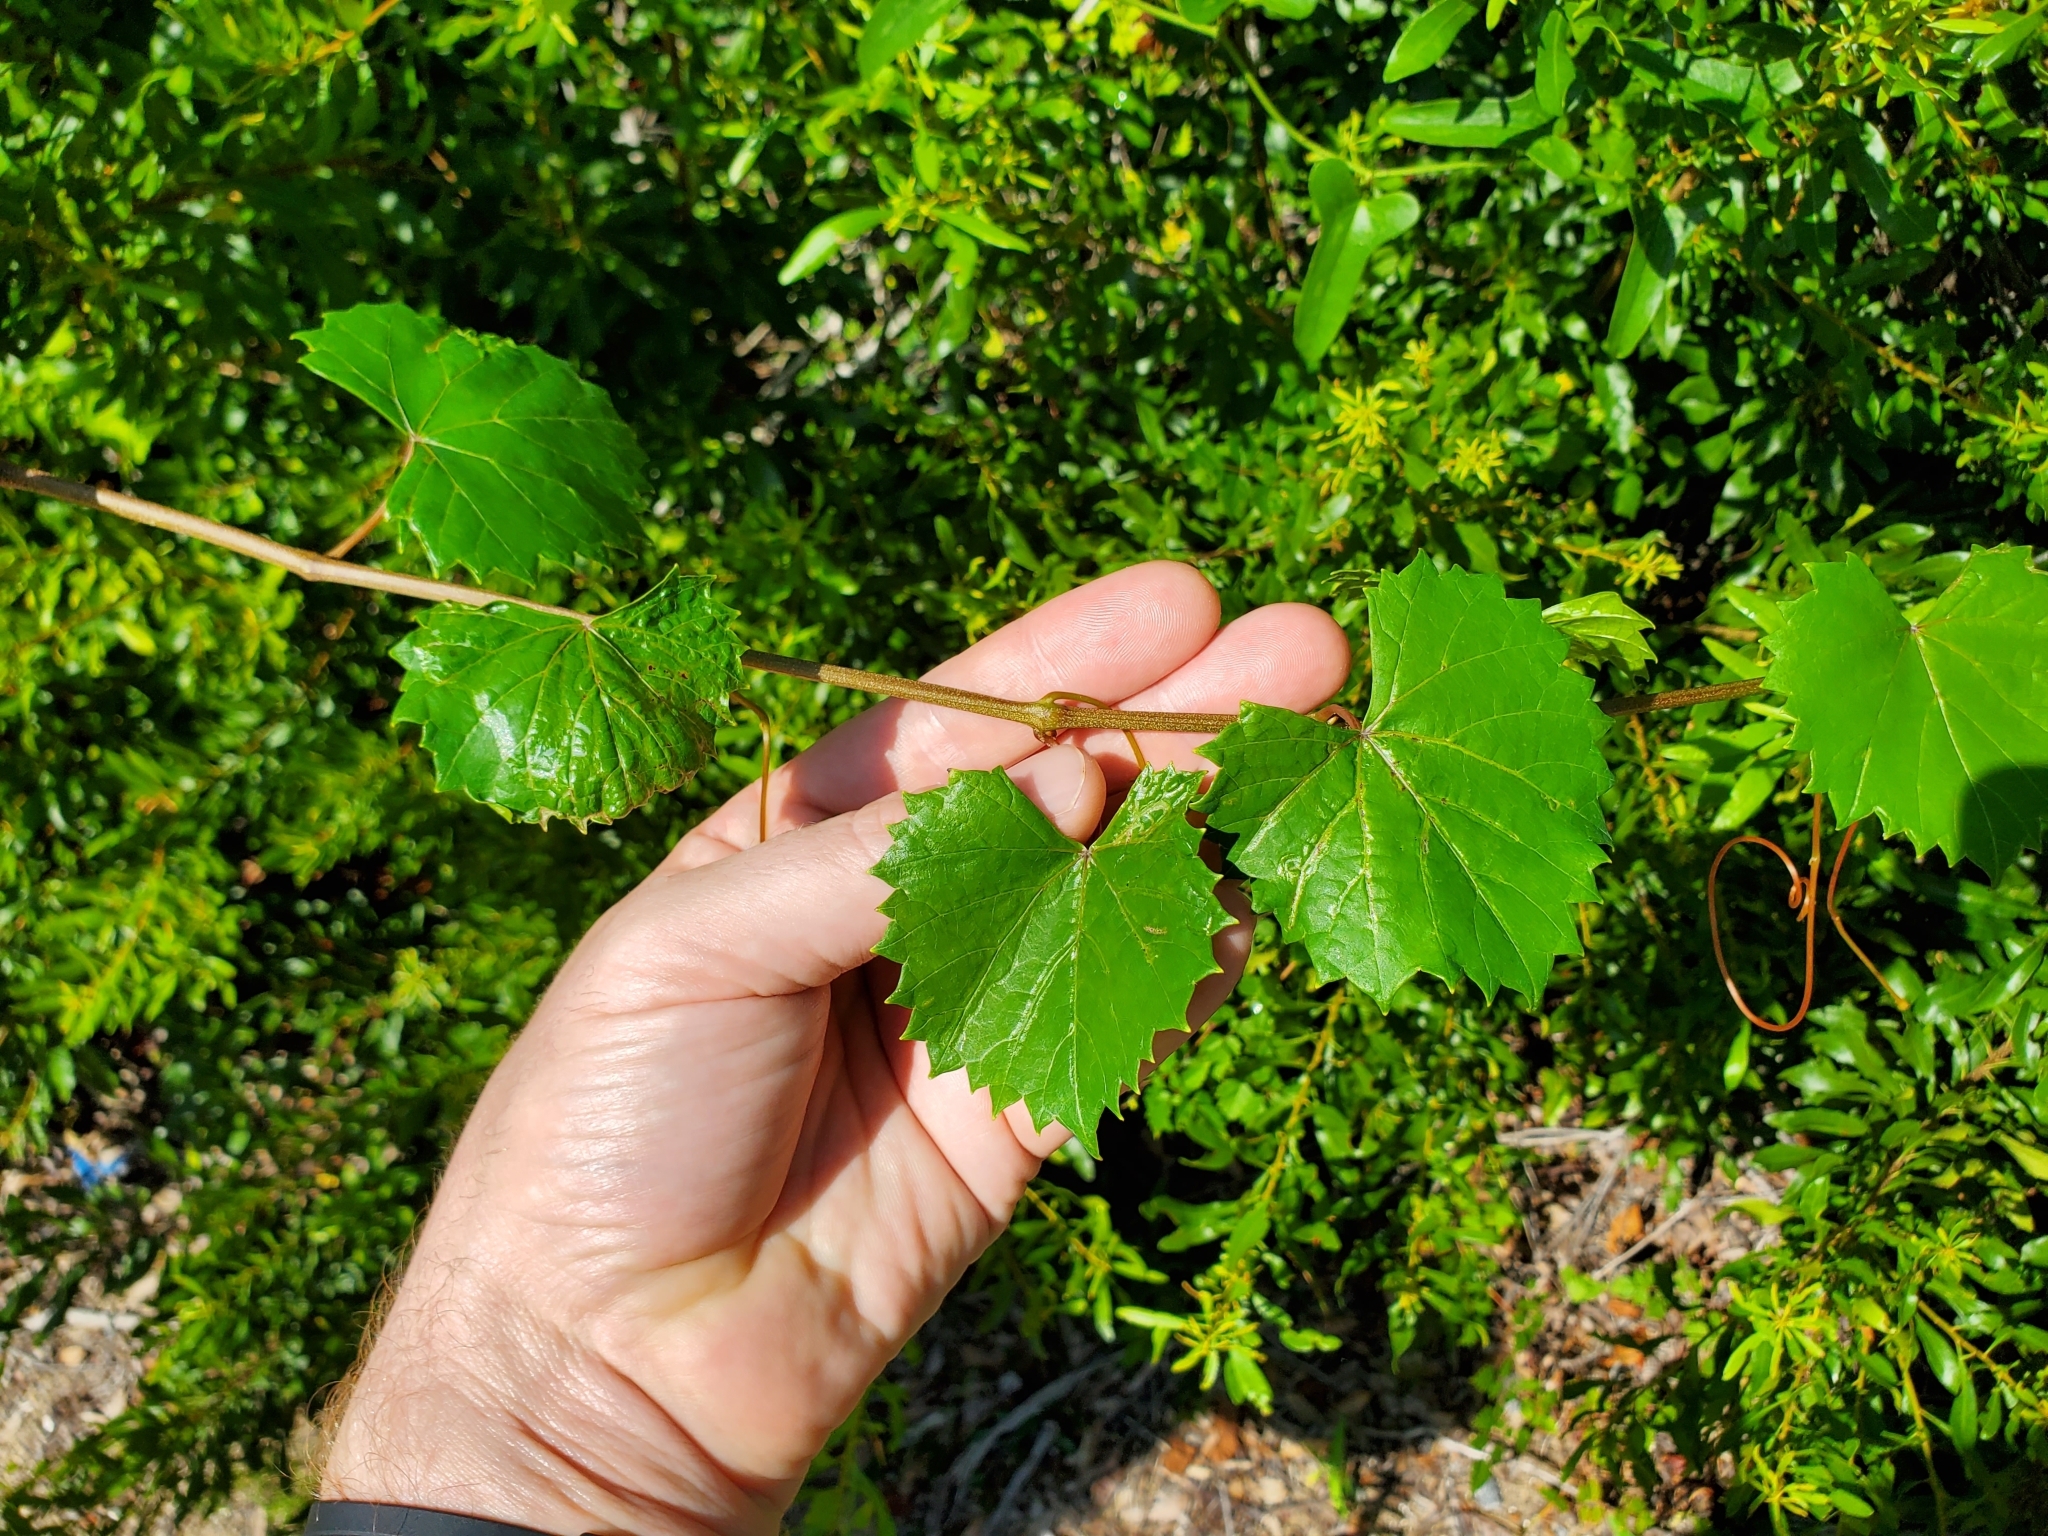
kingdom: Plantae
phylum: Tracheophyta
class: Magnoliopsida
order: Vitales
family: Vitaceae
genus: Vitis
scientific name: Vitis rotundifolia
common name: Muscadine grape
